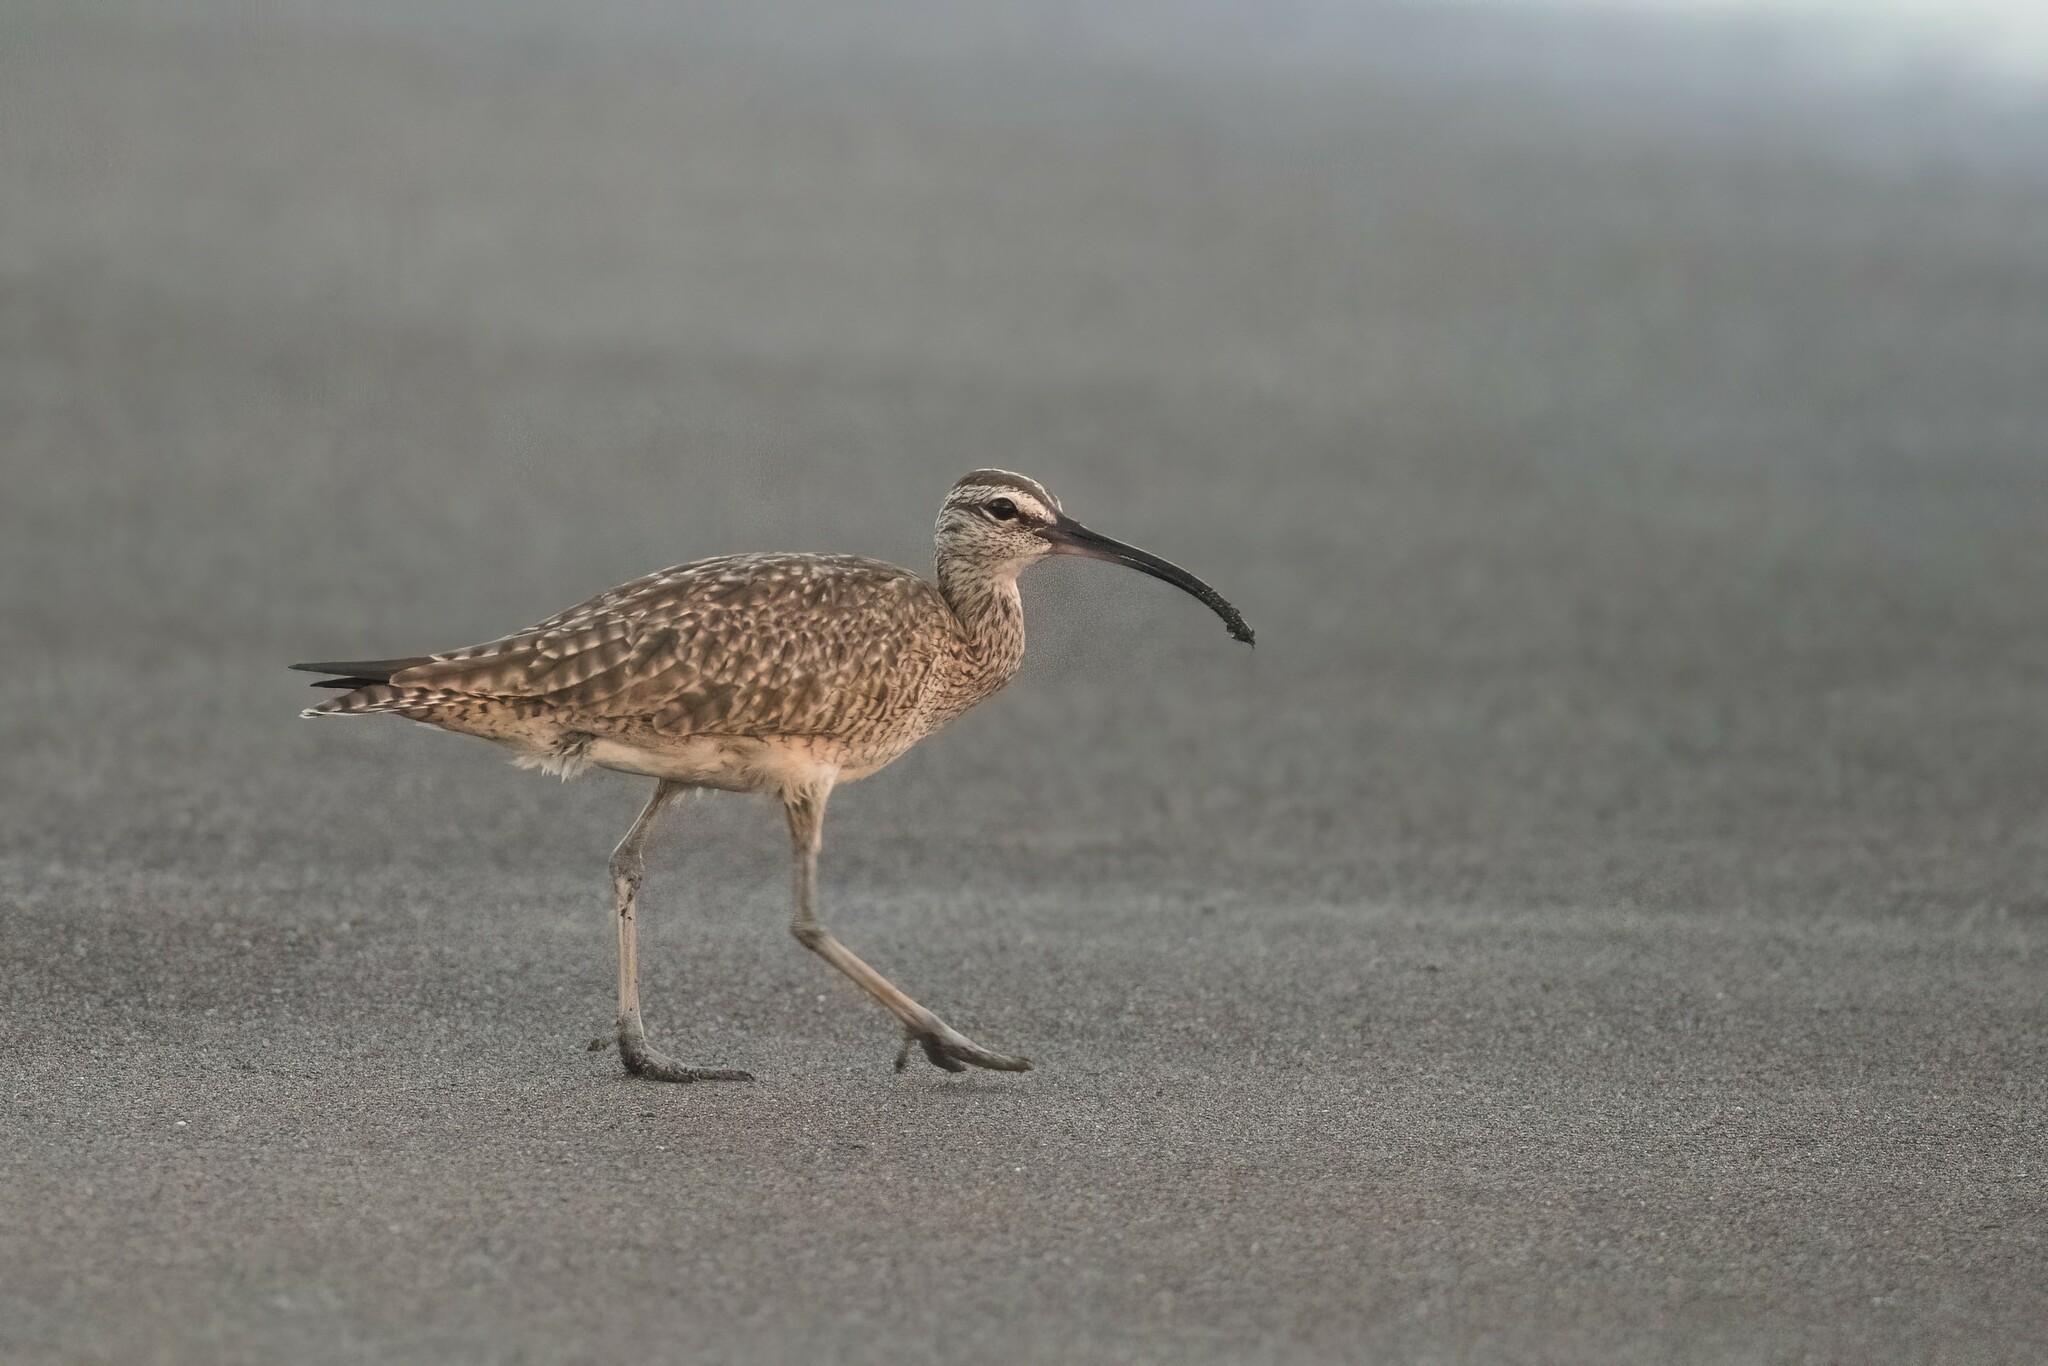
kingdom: Animalia
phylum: Chordata
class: Aves
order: Charadriiformes
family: Scolopacidae
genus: Numenius
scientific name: Numenius phaeopus
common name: Whimbrel
